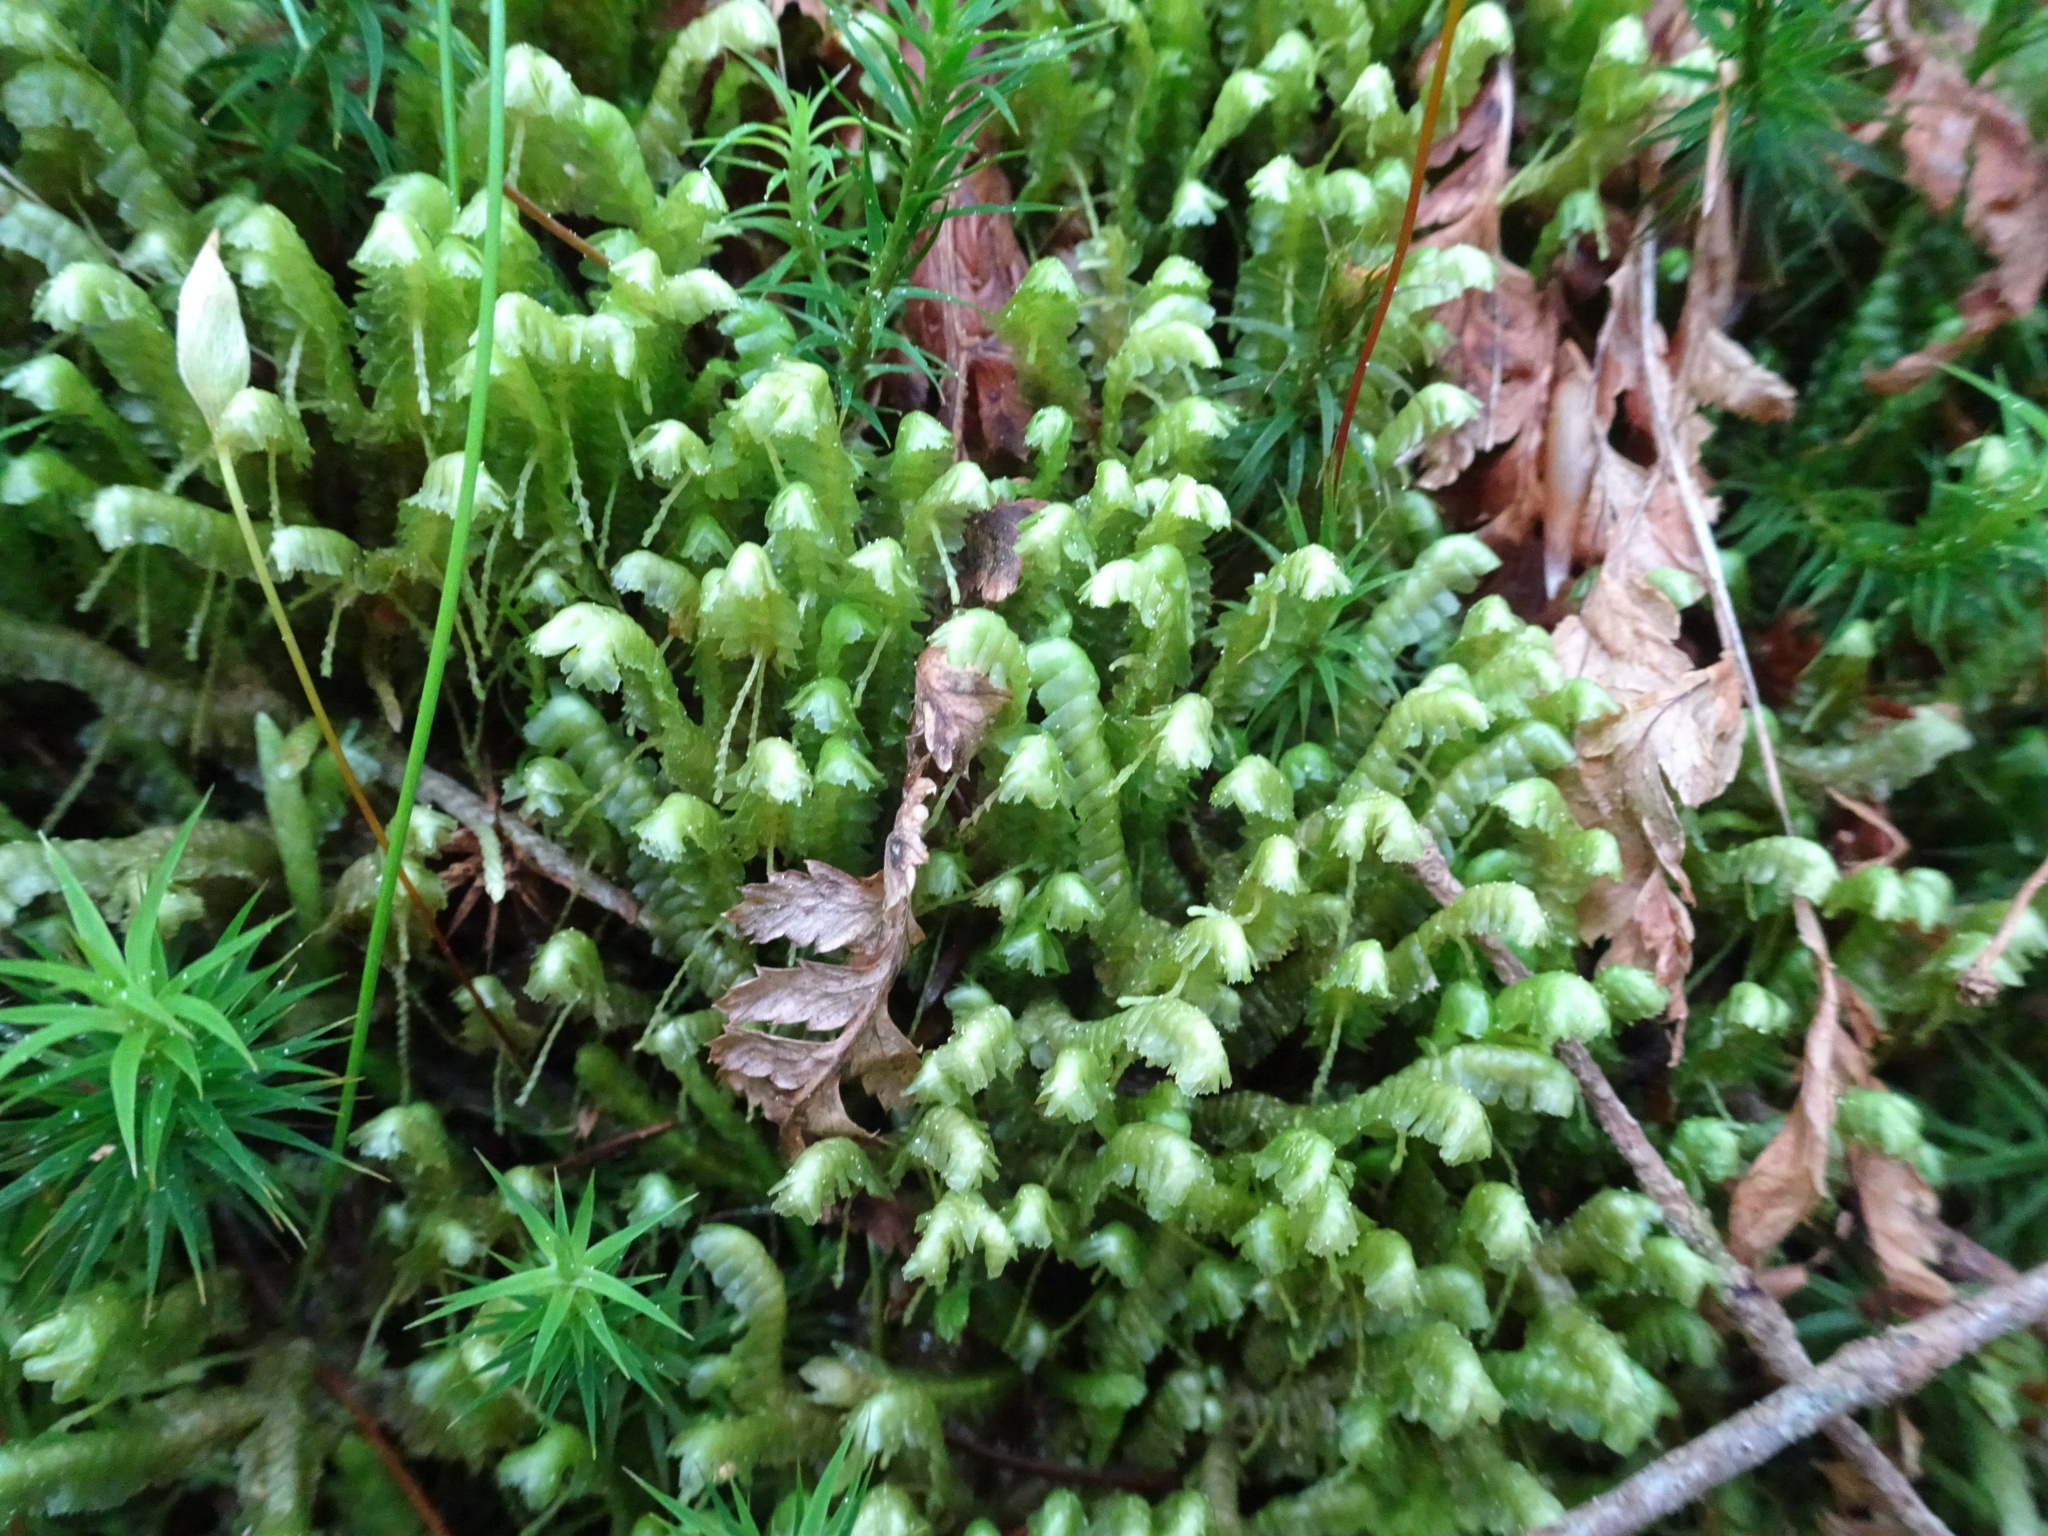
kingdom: Plantae
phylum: Marchantiophyta
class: Jungermanniopsida
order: Jungermanniales
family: Lepidoziaceae
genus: Bazzania
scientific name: Bazzania trilobata
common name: Three-lobed whipwort
